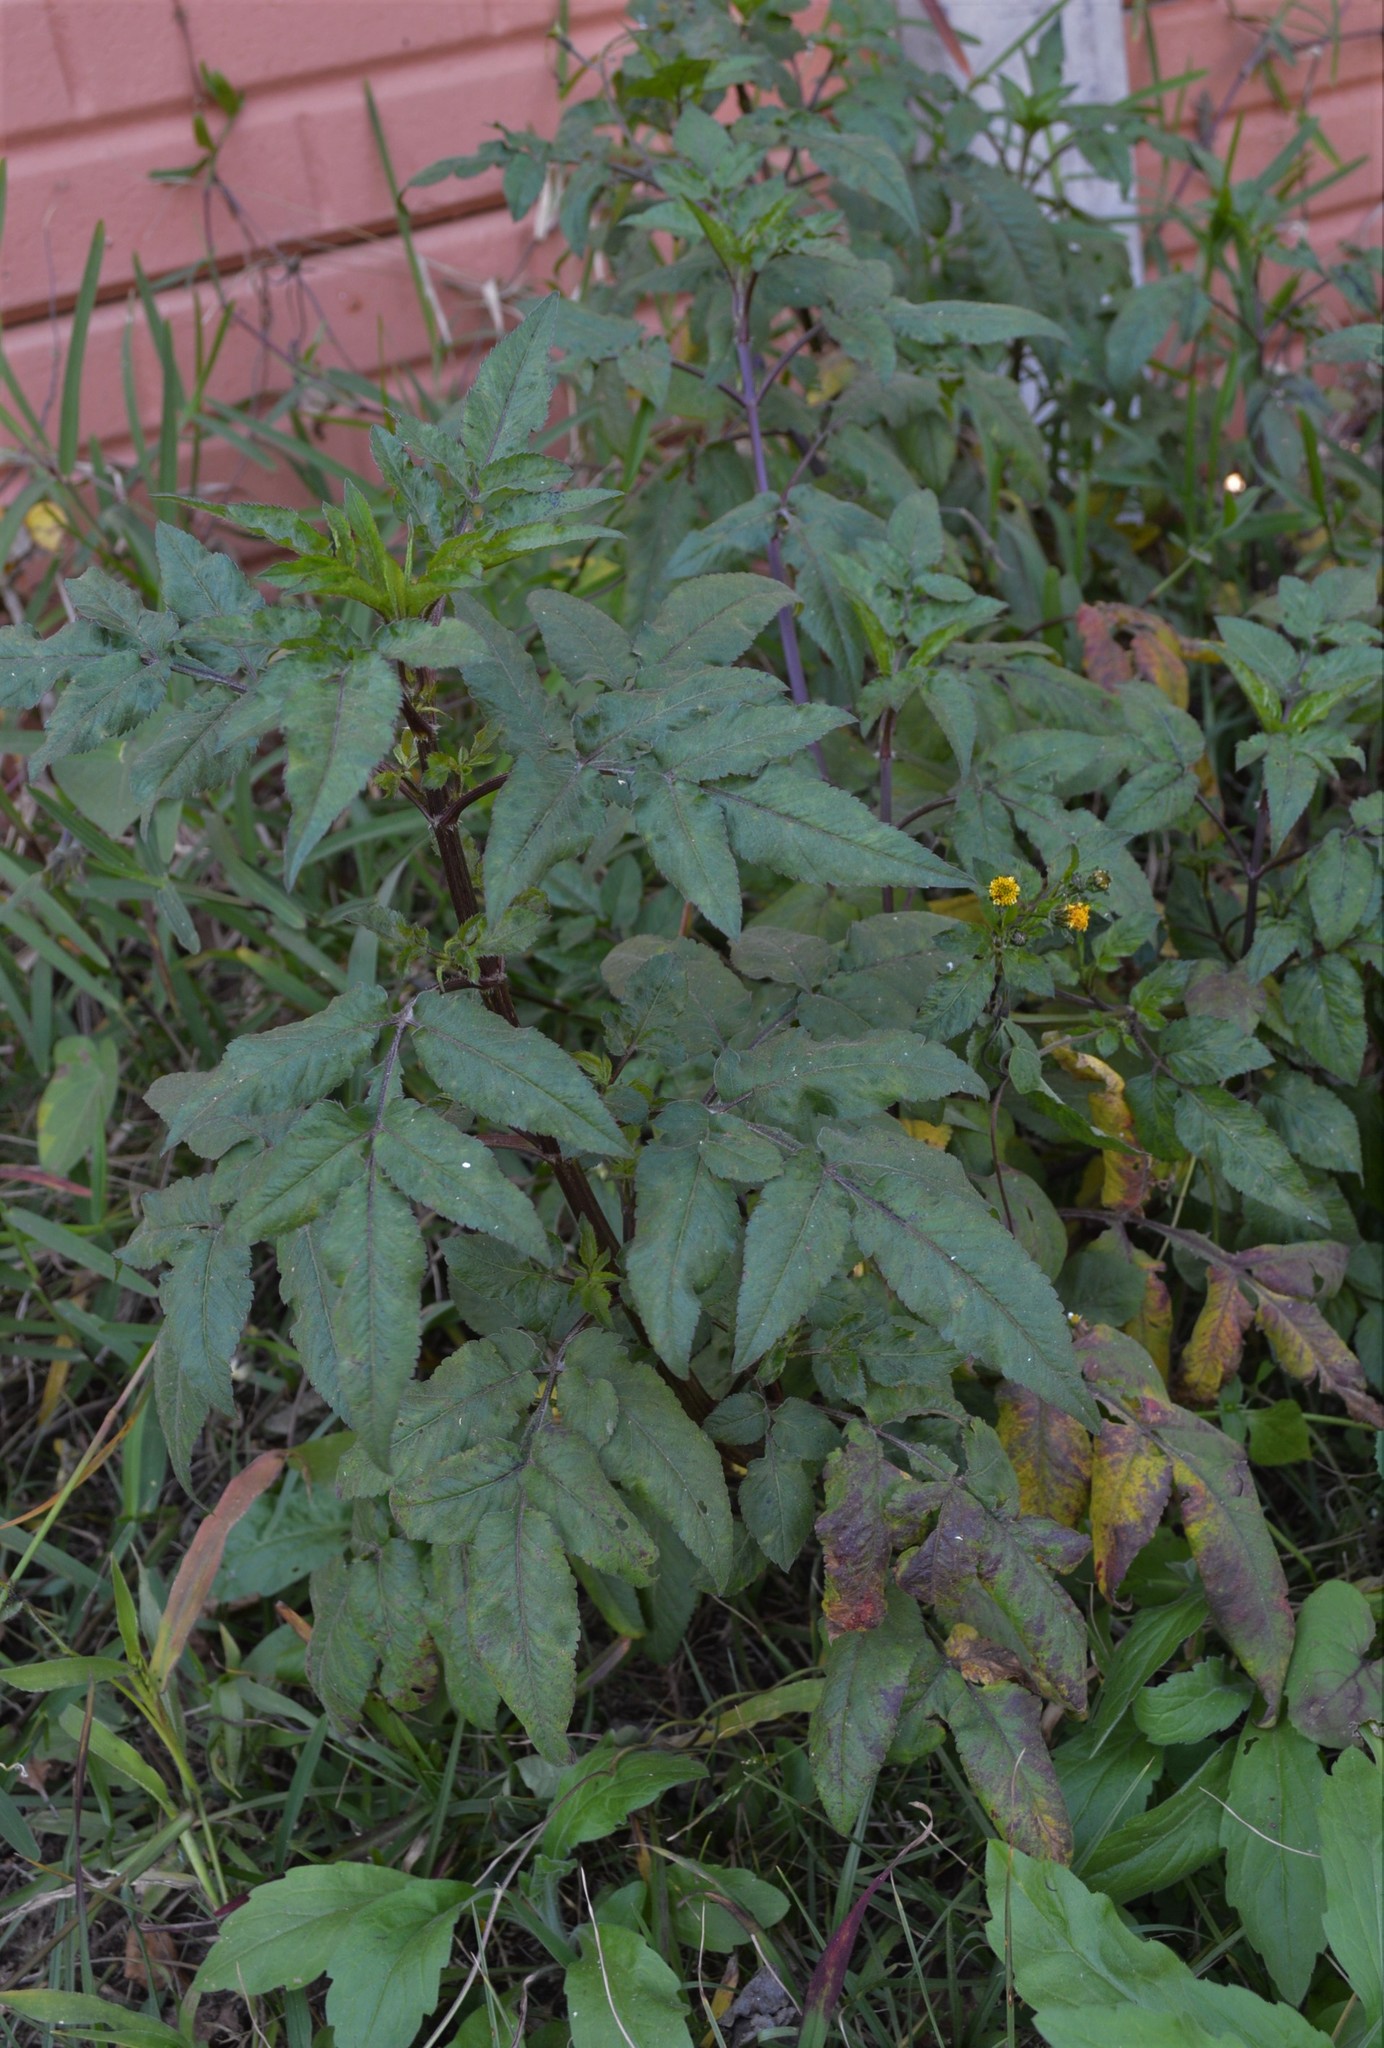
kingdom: Plantae
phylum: Tracheophyta
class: Magnoliopsida
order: Asterales
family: Asteraceae
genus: Bidens
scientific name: Bidens pilosa
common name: Black-jack
